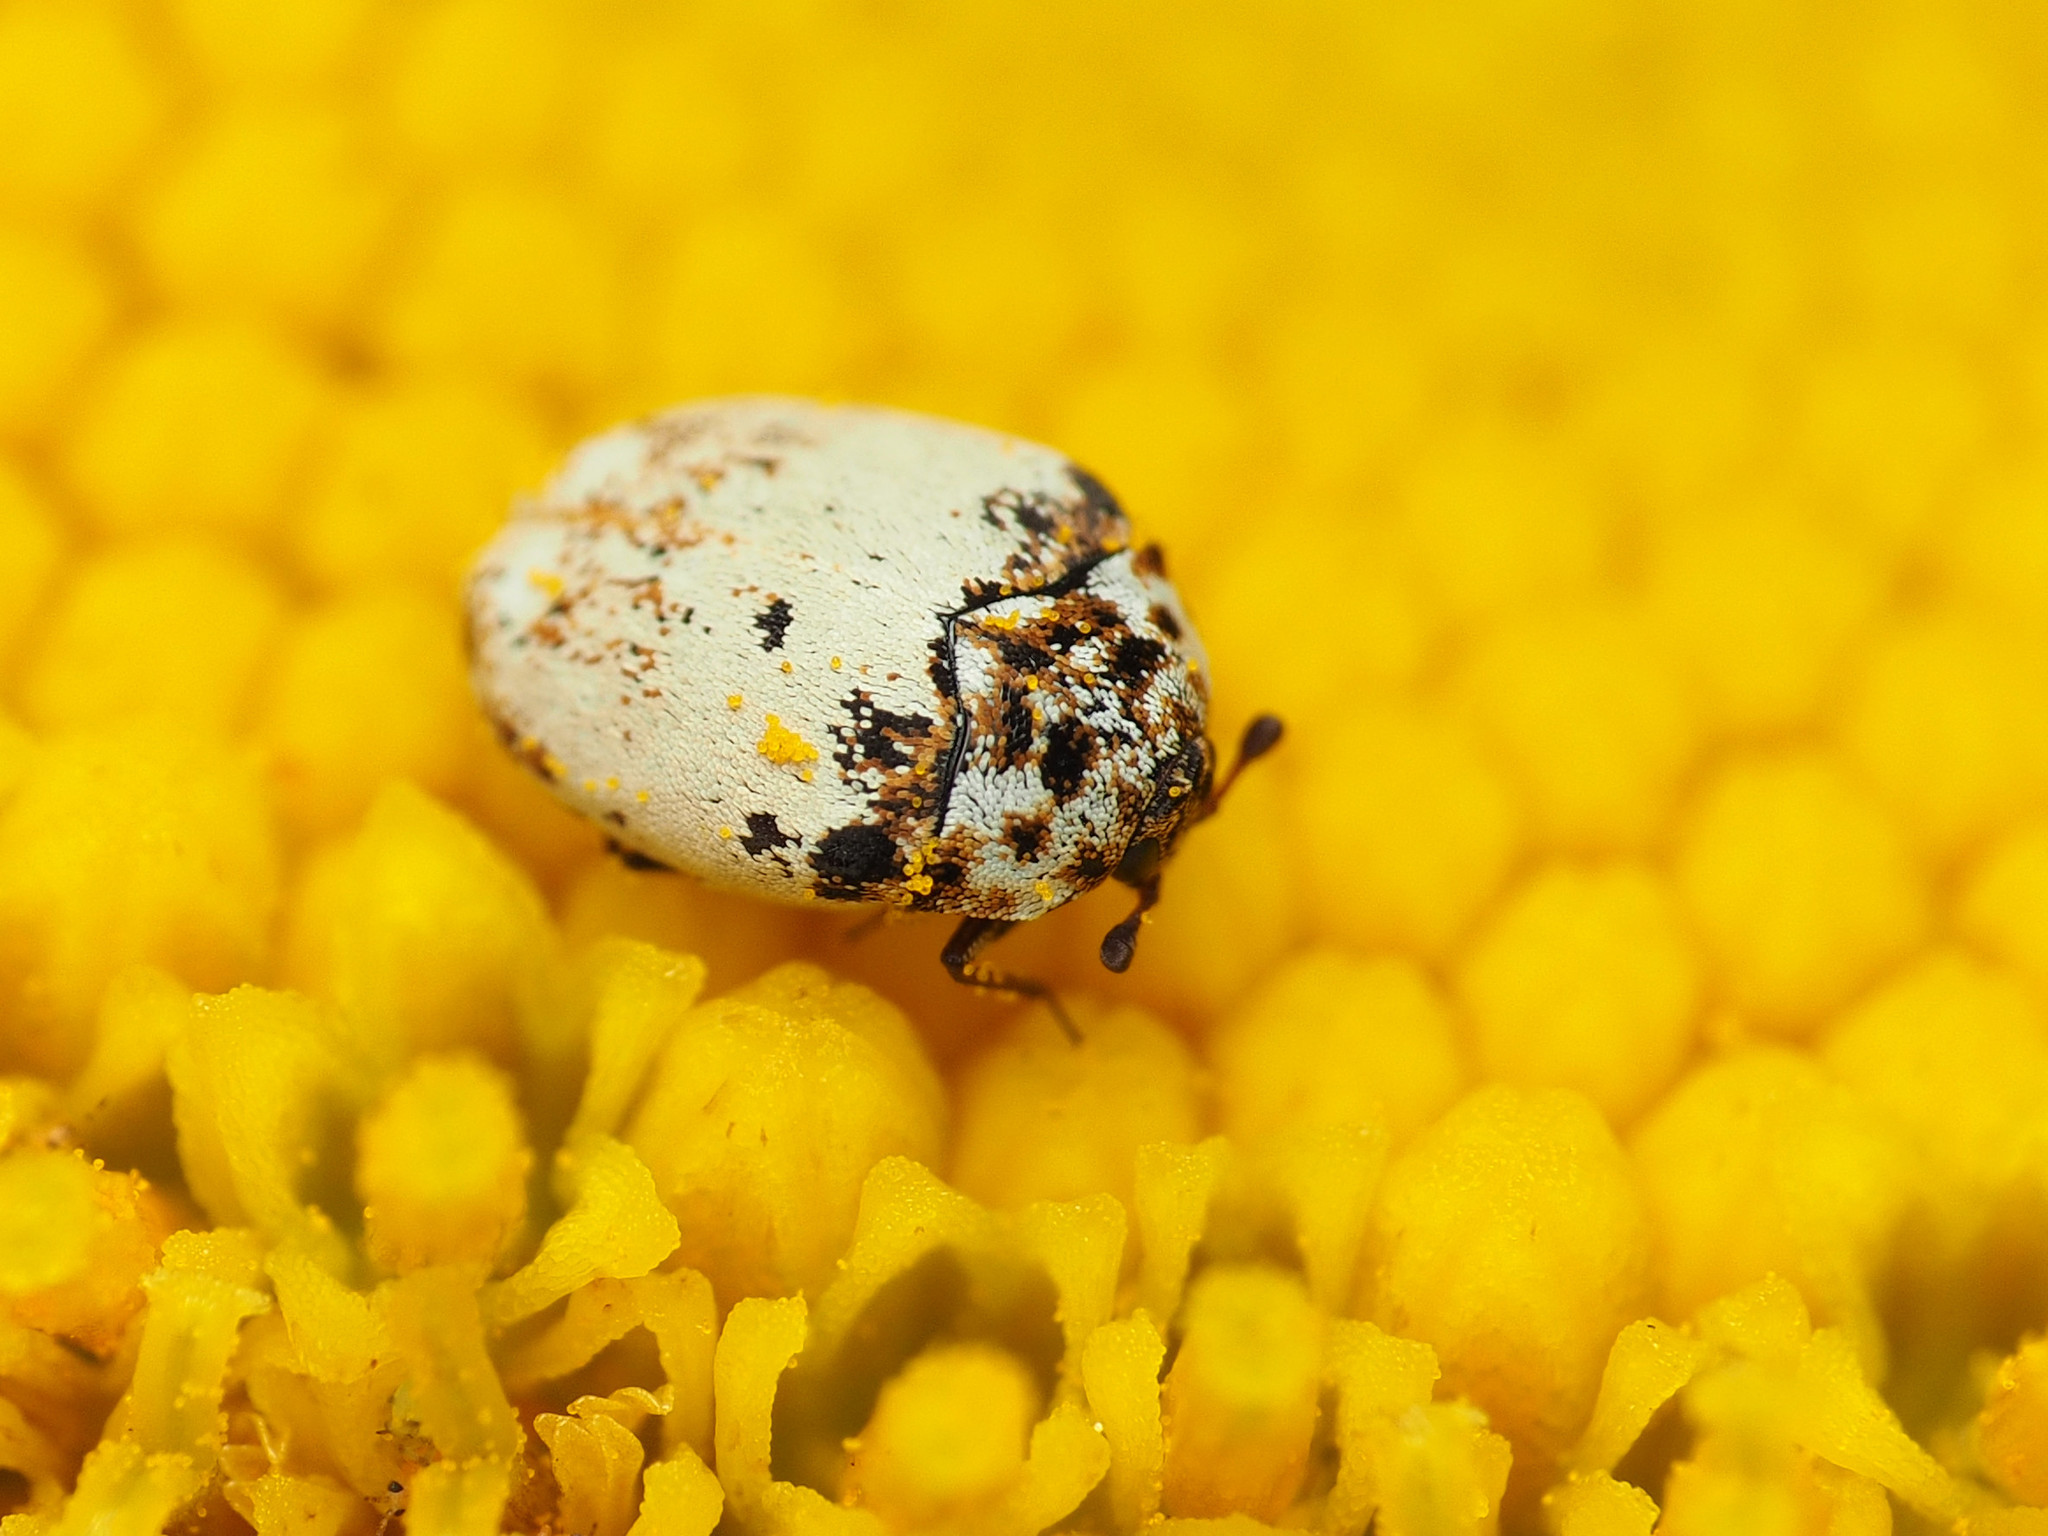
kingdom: Animalia
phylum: Arthropoda
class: Insecta
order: Coleoptera
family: Dermestidae
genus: Anthrenus
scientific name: Anthrenus isabellinus
